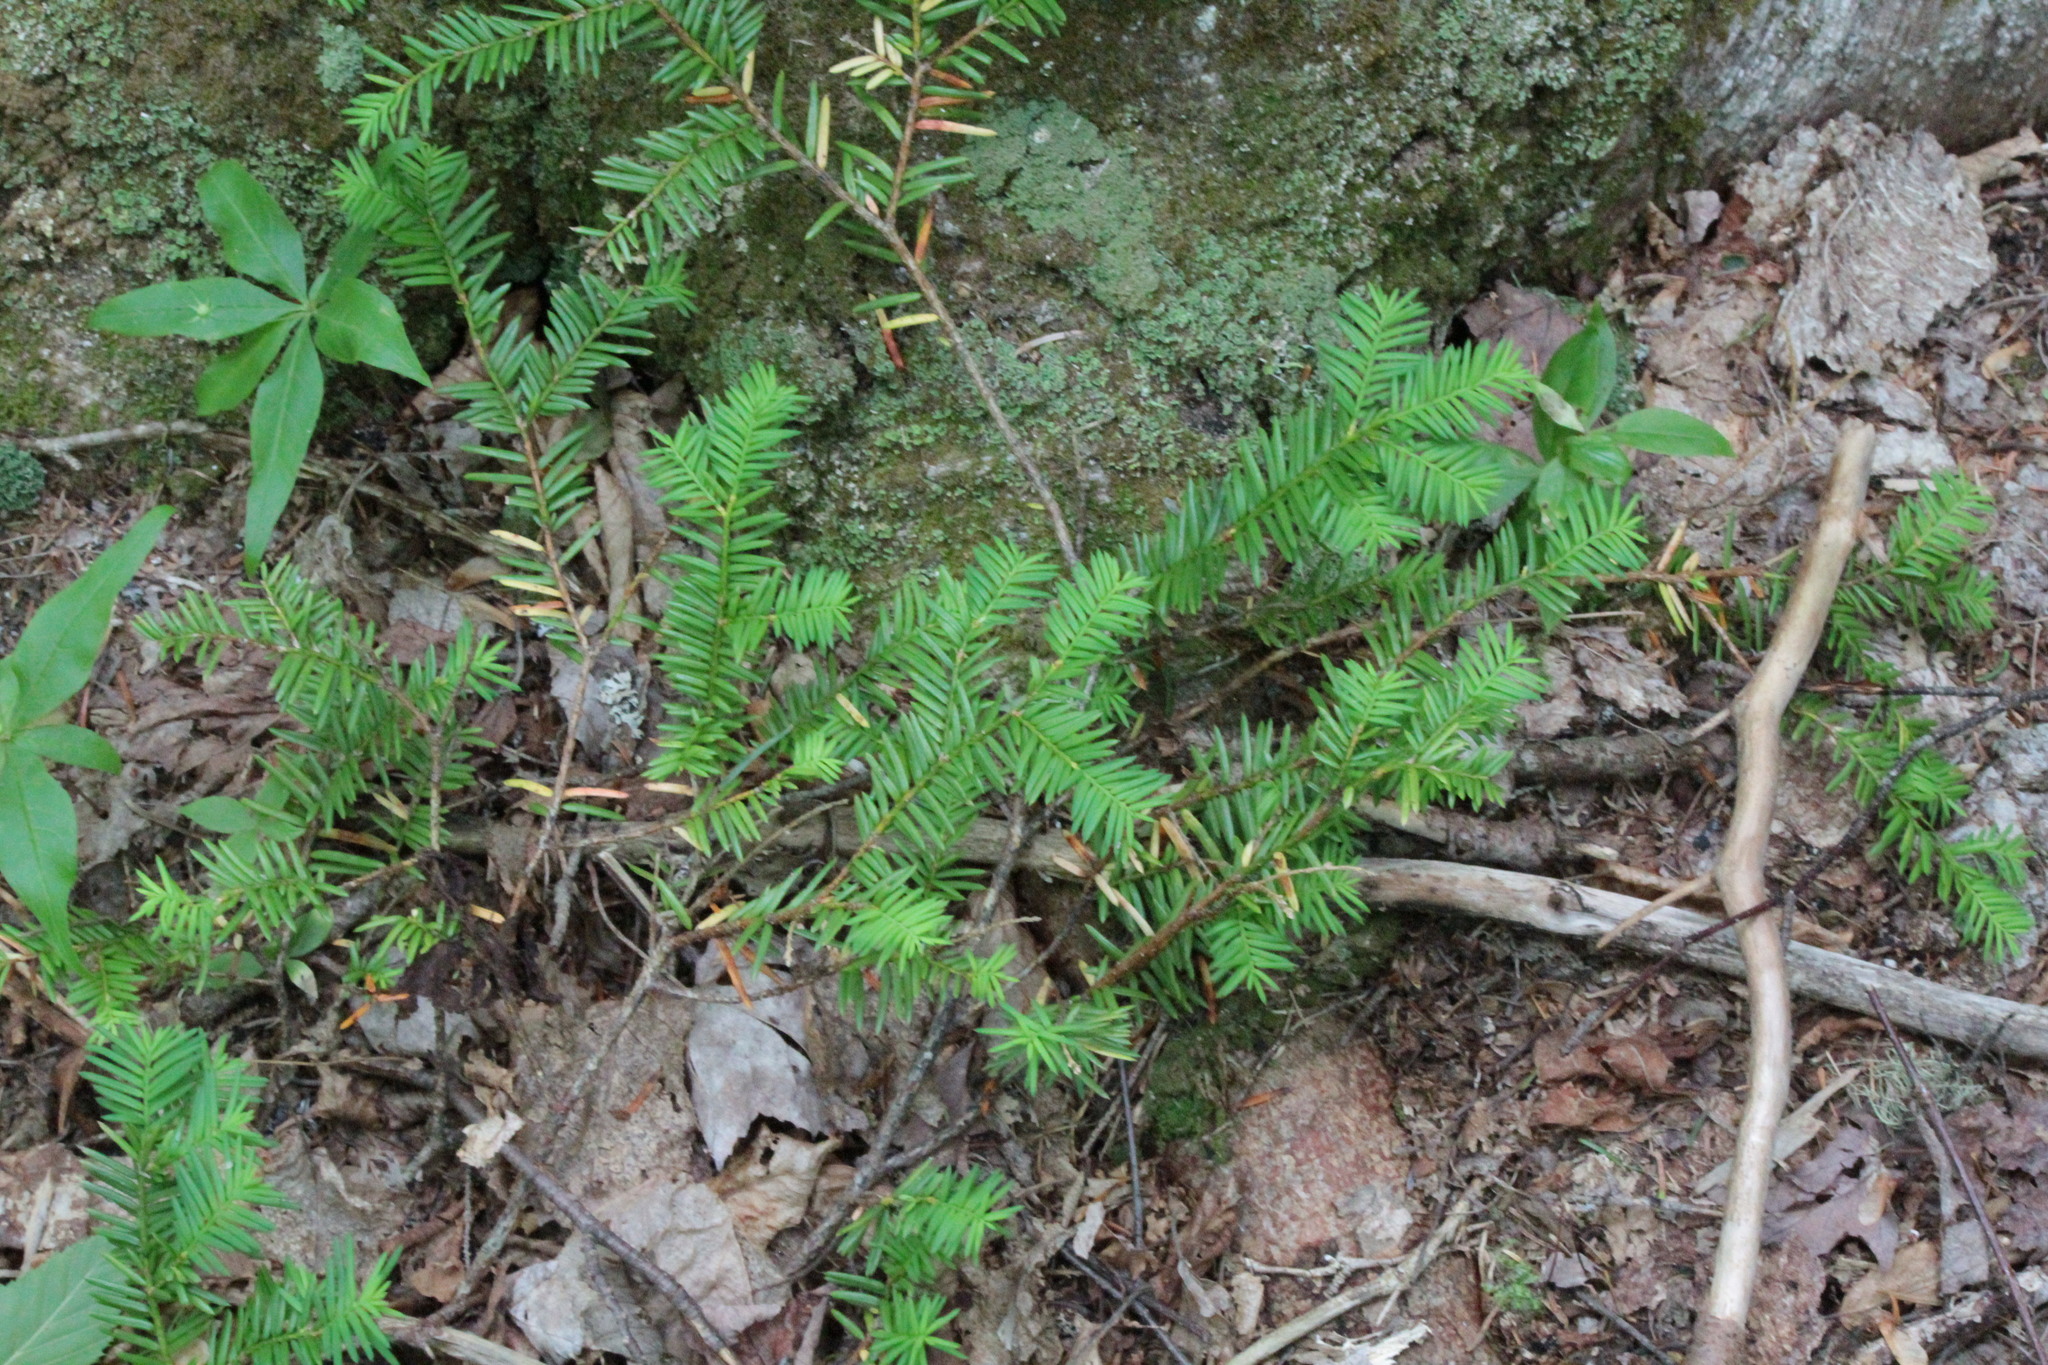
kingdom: Plantae
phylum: Tracheophyta
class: Pinopsida
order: Pinales
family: Taxaceae
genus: Taxus
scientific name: Taxus canadensis
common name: American yew
